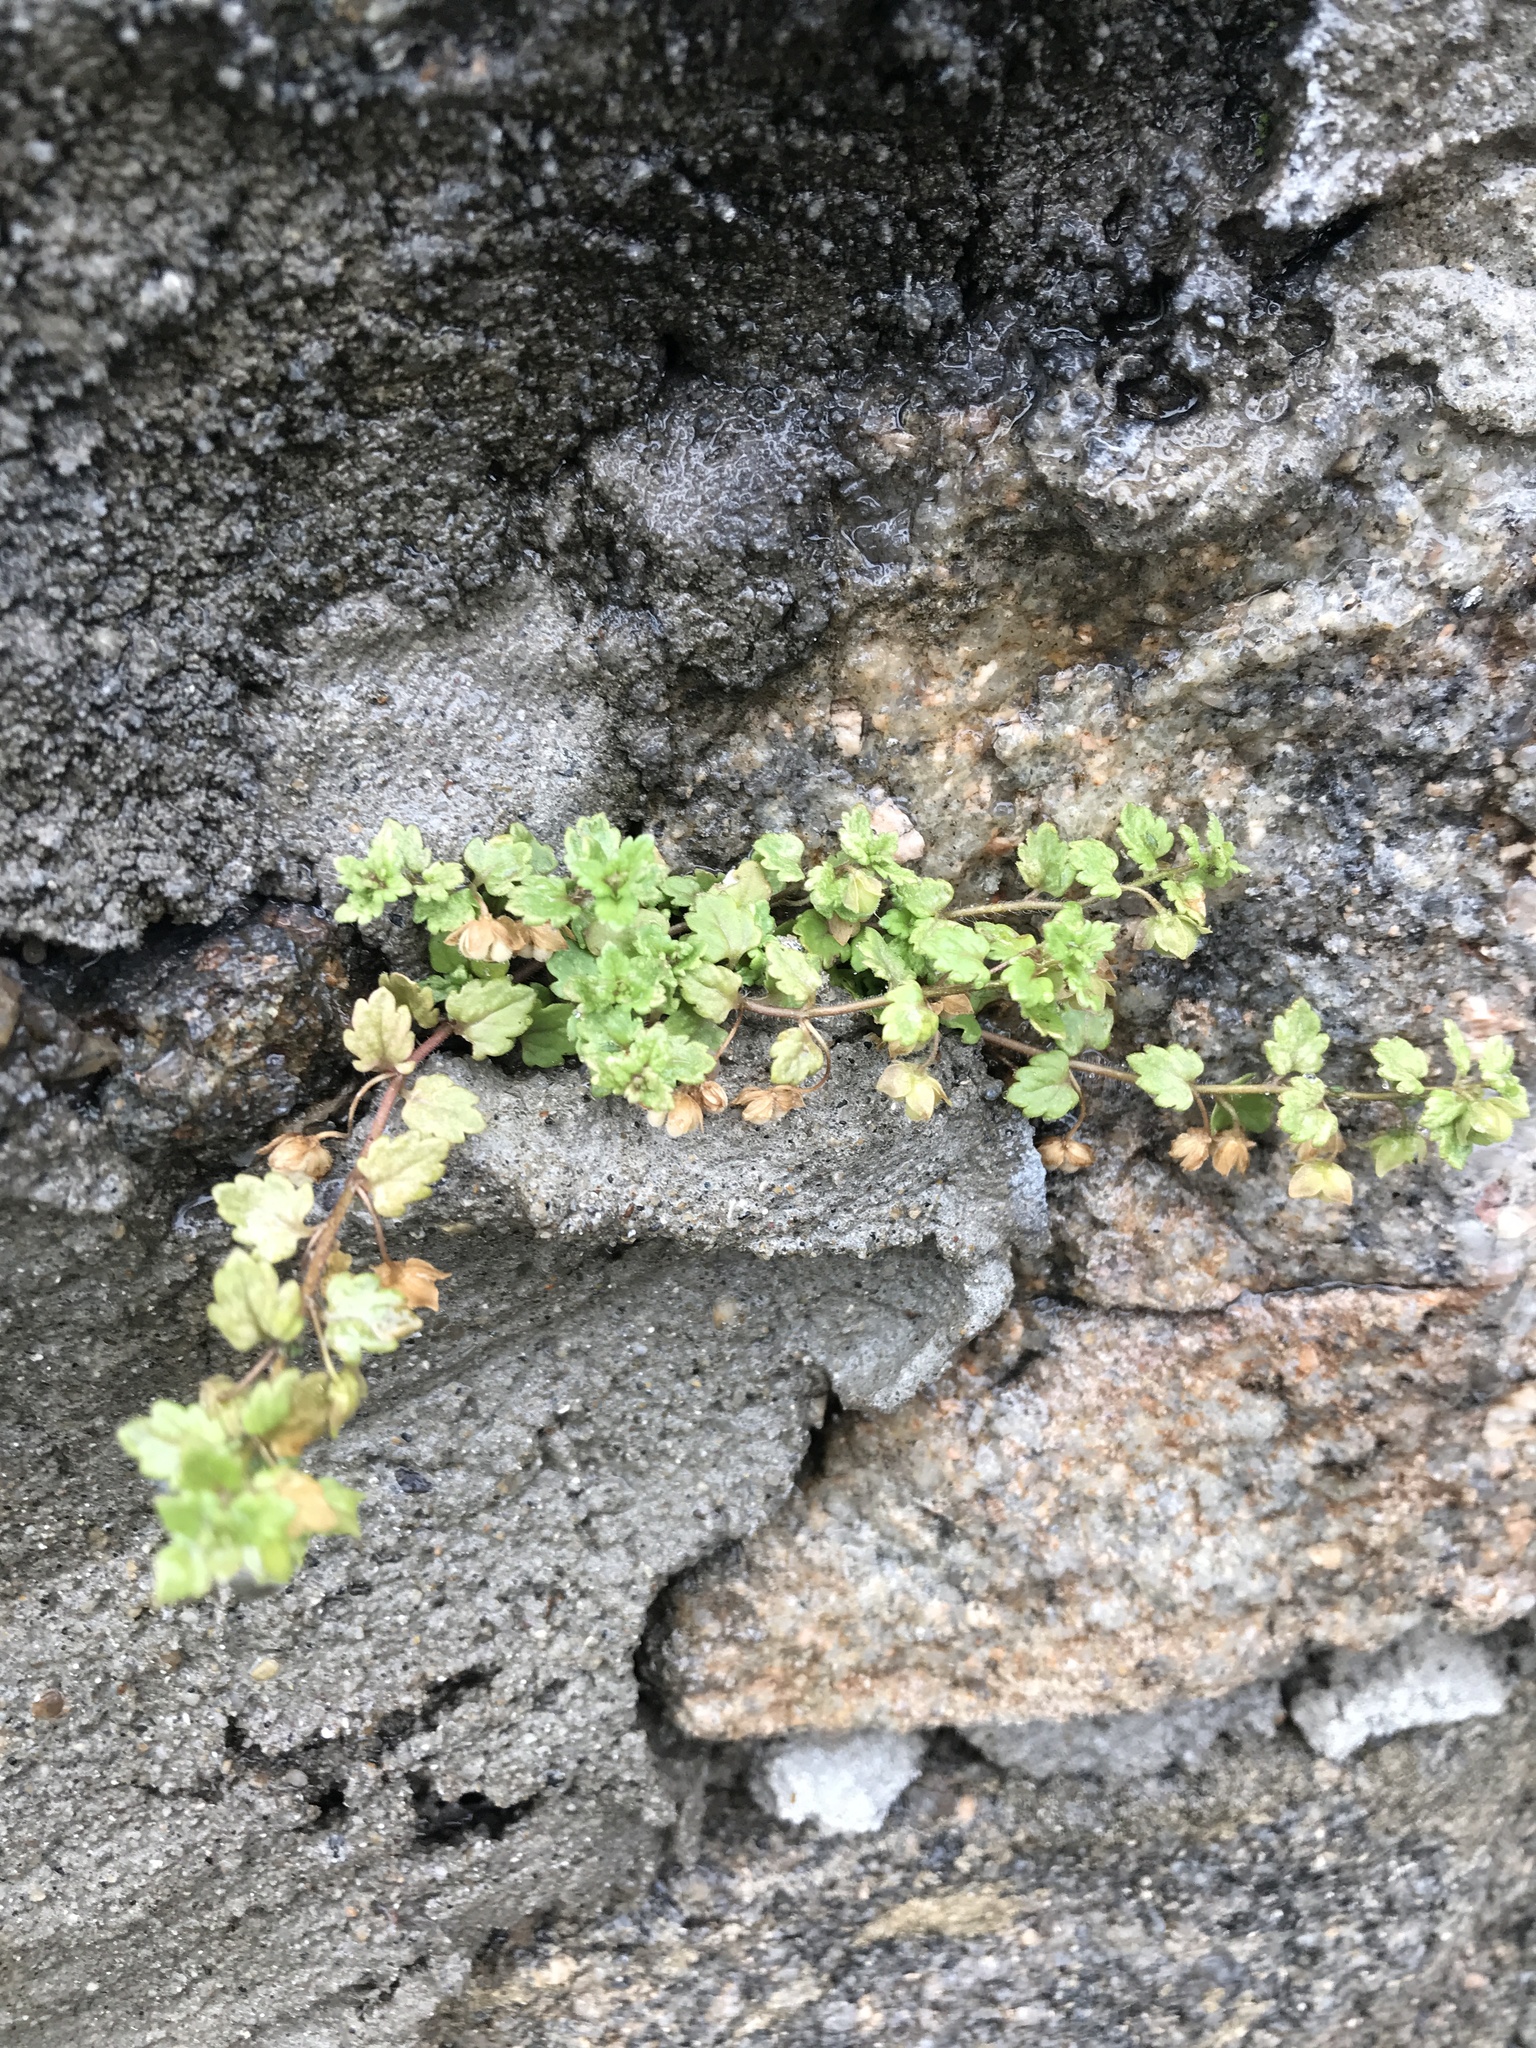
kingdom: Plantae
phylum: Tracheophyta
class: Magnoliopsida
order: Lamiales
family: Plantaginaceae
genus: Veronica
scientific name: Veronica polita
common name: Grey field-speedwell
